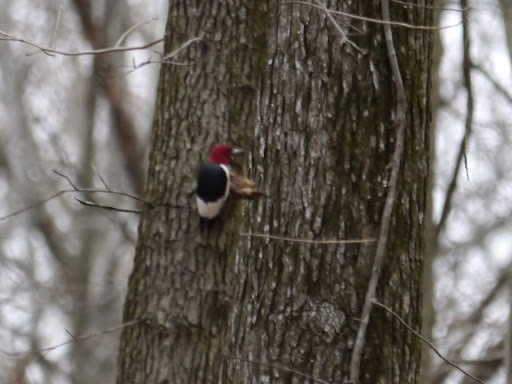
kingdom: Animalia
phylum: Chordata
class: Aves
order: Piciformes
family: Picidae
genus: Melanerpes
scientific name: Melanerpes erythrocephalus
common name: Red-headed woodpecker
